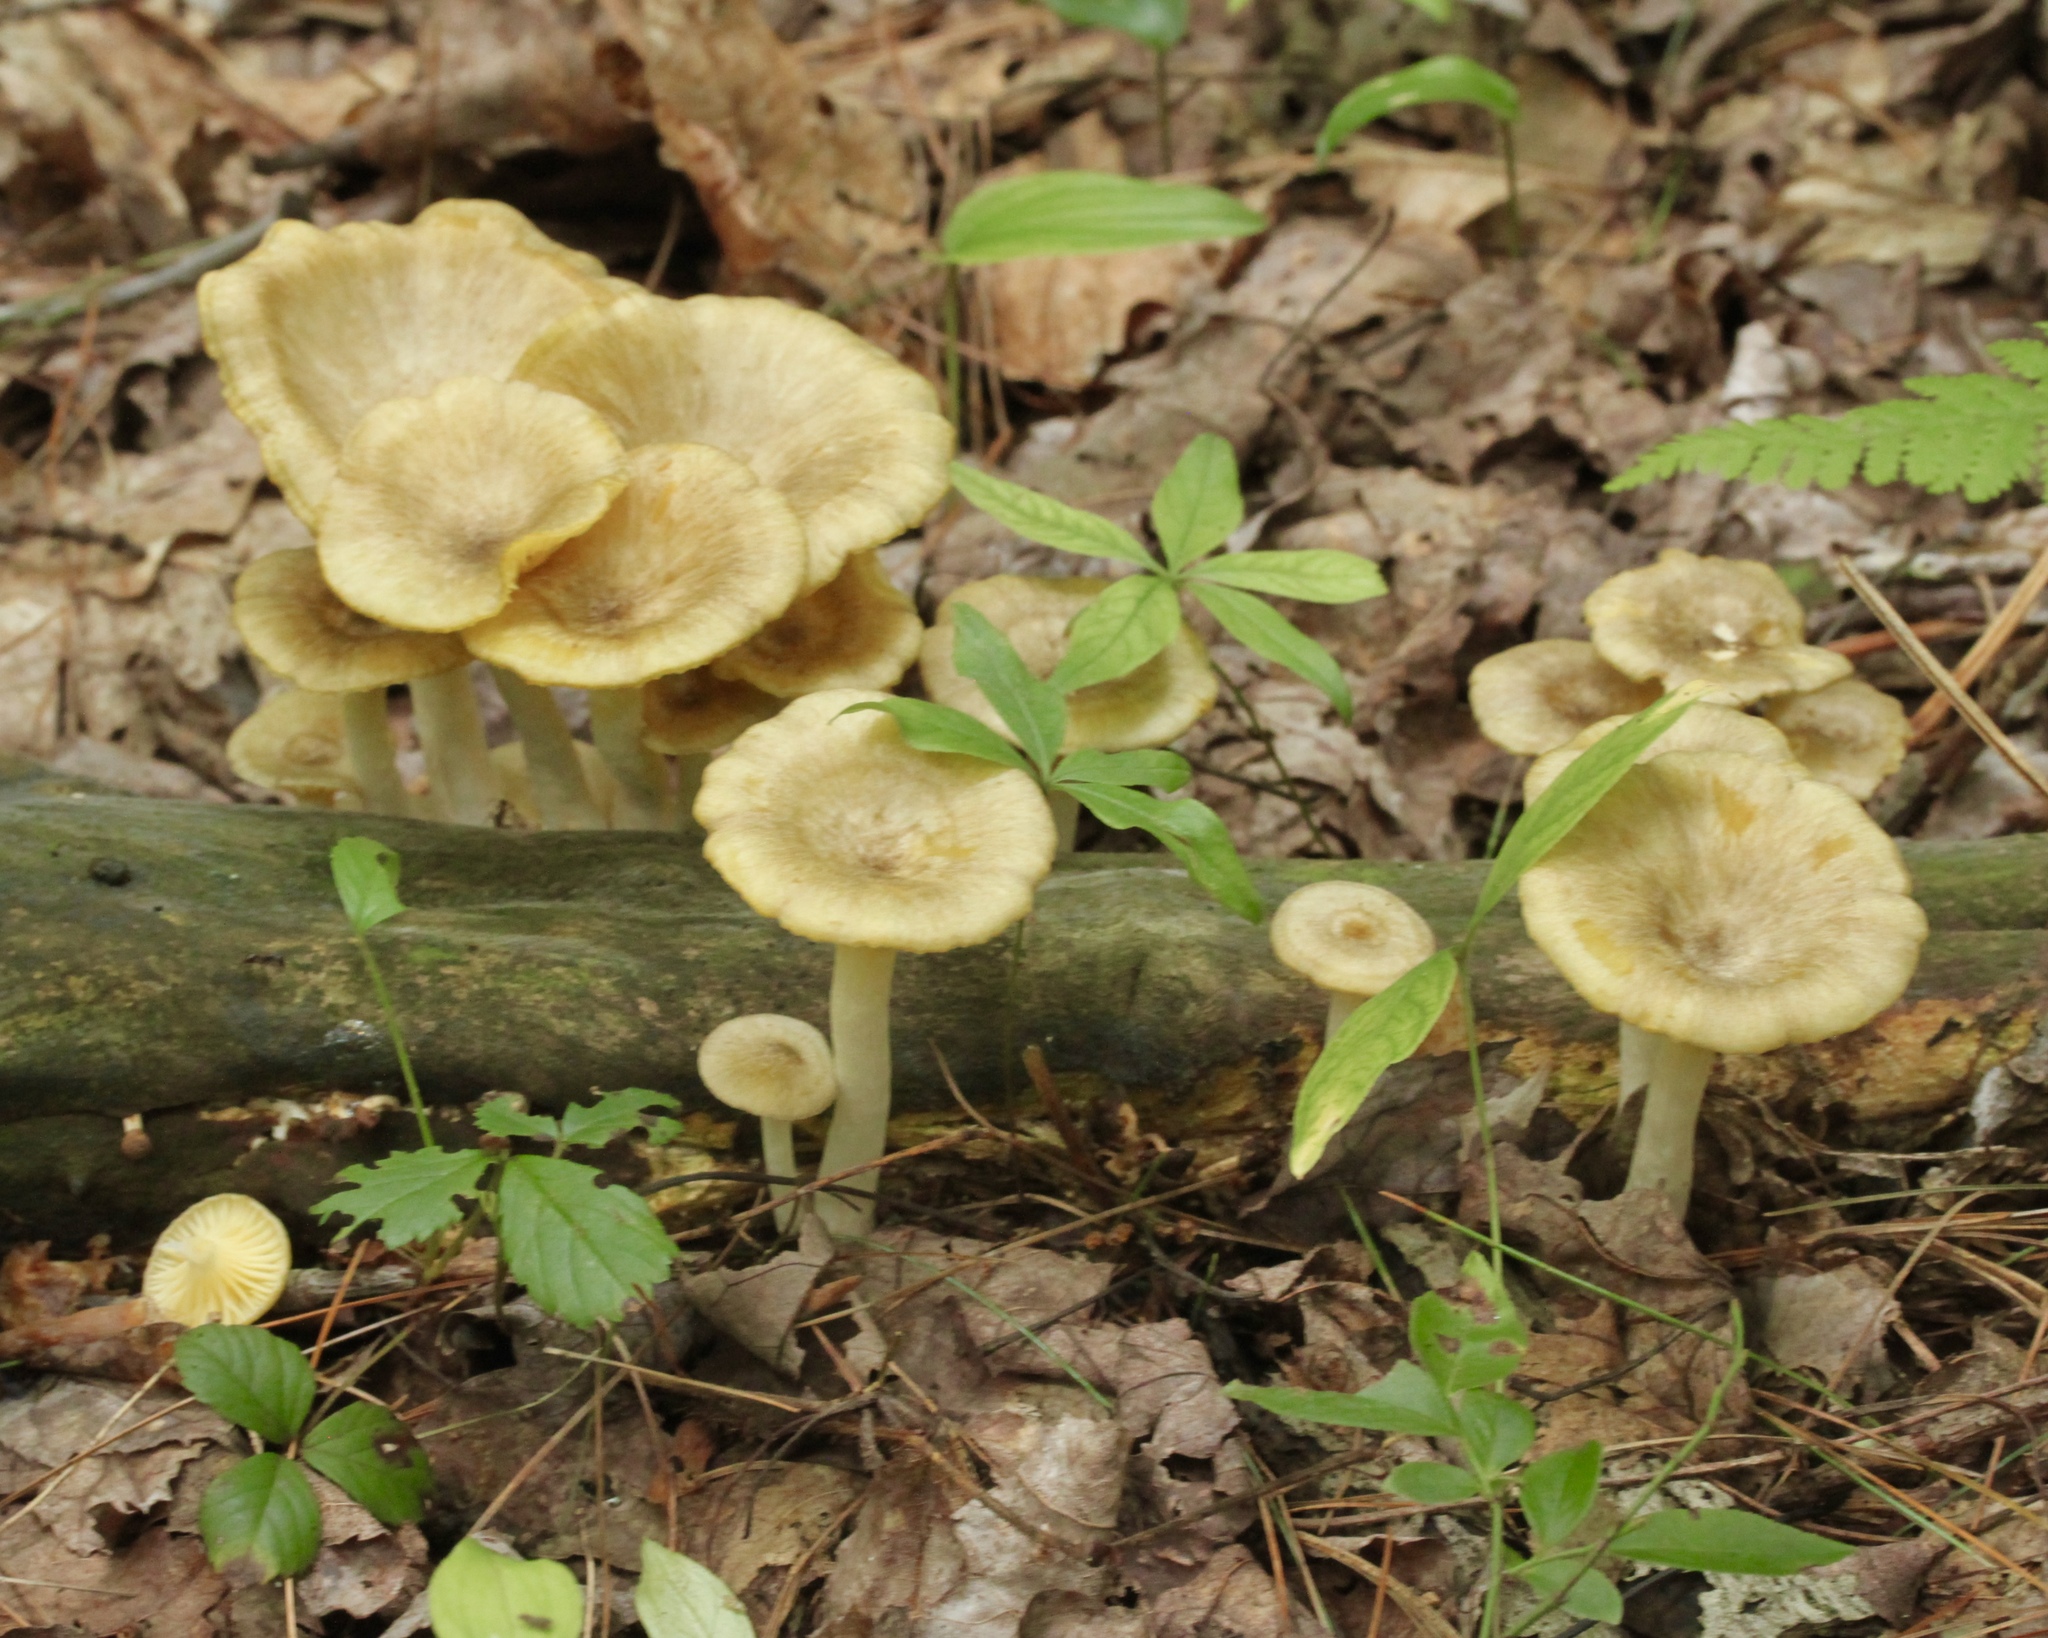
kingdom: Fungi
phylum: Basidiomycota
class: Agaricomycetes
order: Agaricales
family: Marasmiaceae
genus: Gerronema
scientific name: Gerronema strombodes
